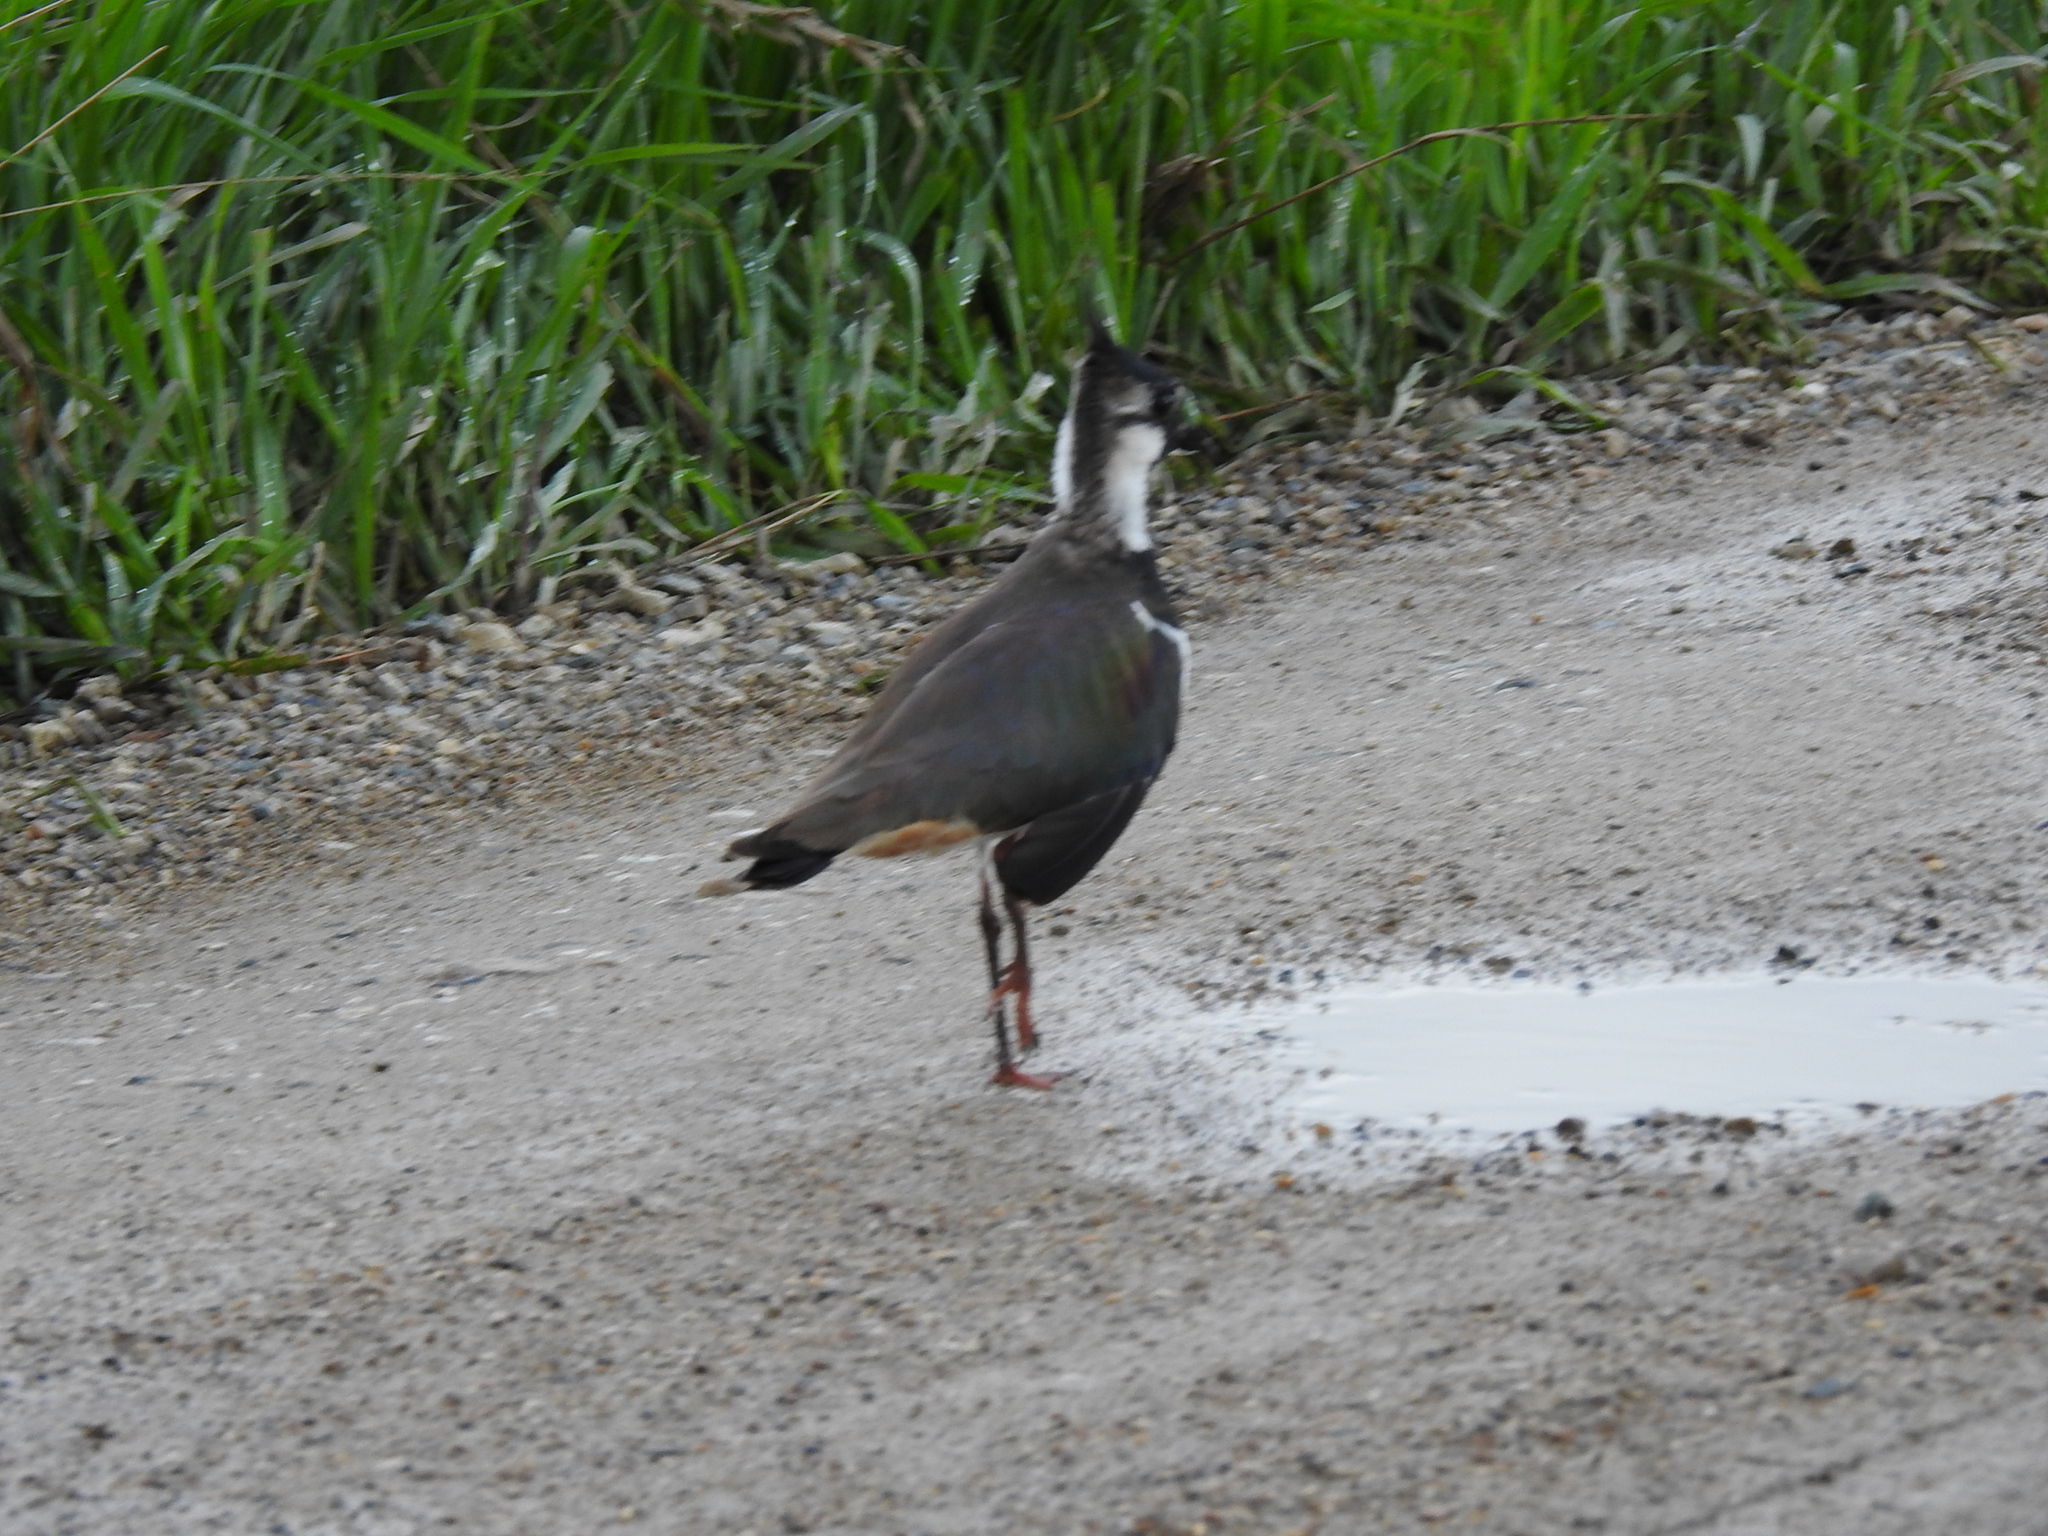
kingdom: Animalia
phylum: Chordata
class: Aves
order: Charadriiformes
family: Charadriidae
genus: Vanellus
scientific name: Vanellus vanellus
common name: Northern lapwing
